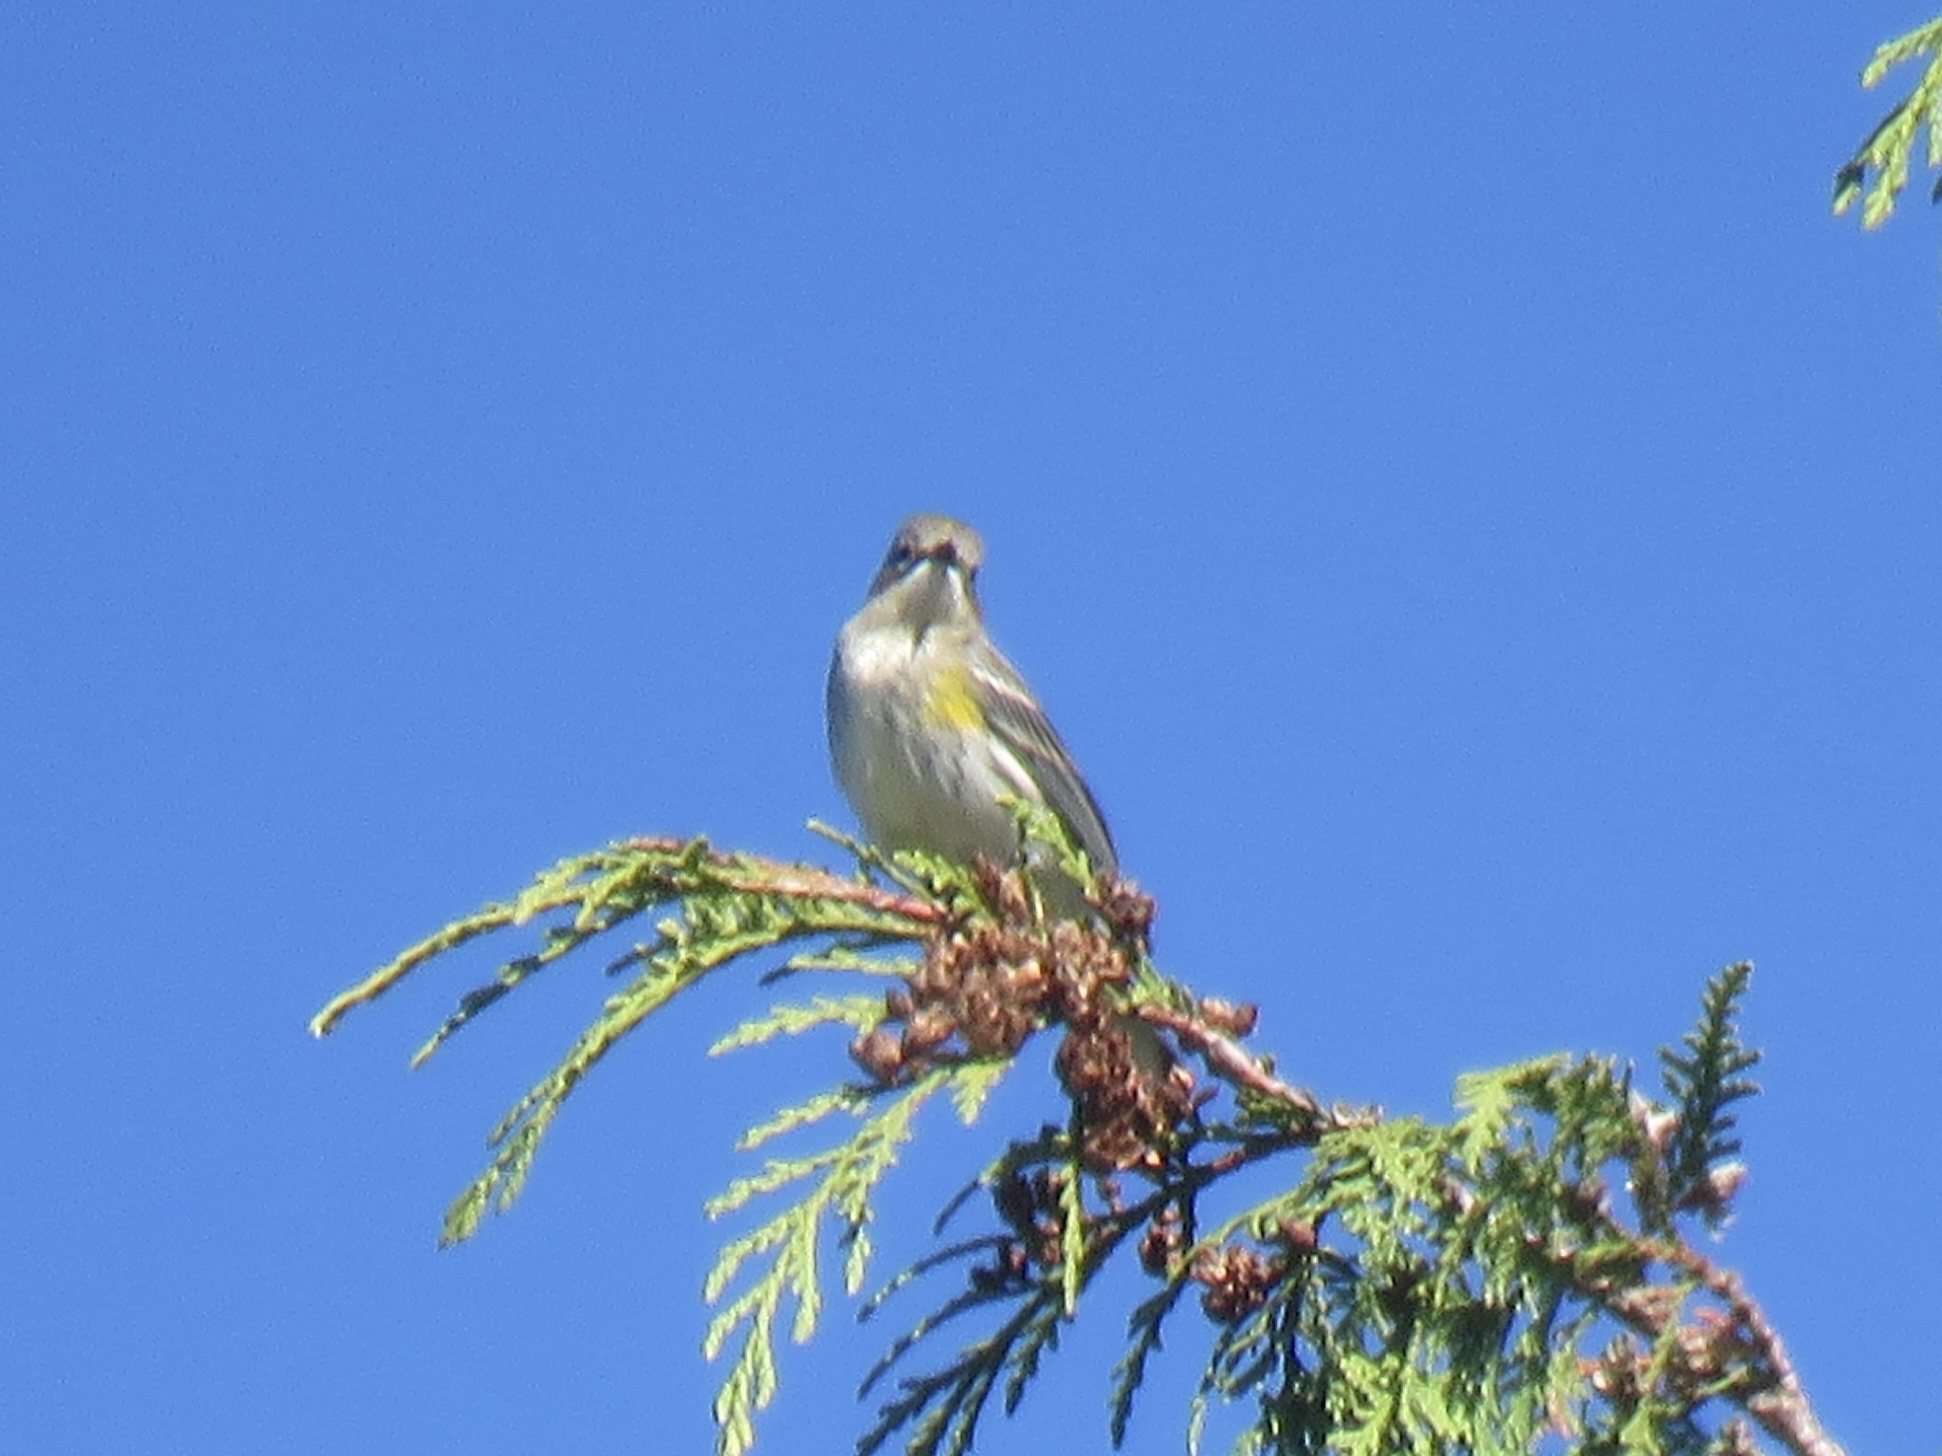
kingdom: Animalia
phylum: Chordata
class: Aves
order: Passeriformes
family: Parulidae
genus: Setophaga
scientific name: Setophaga coronata
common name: Myrtle warbler
